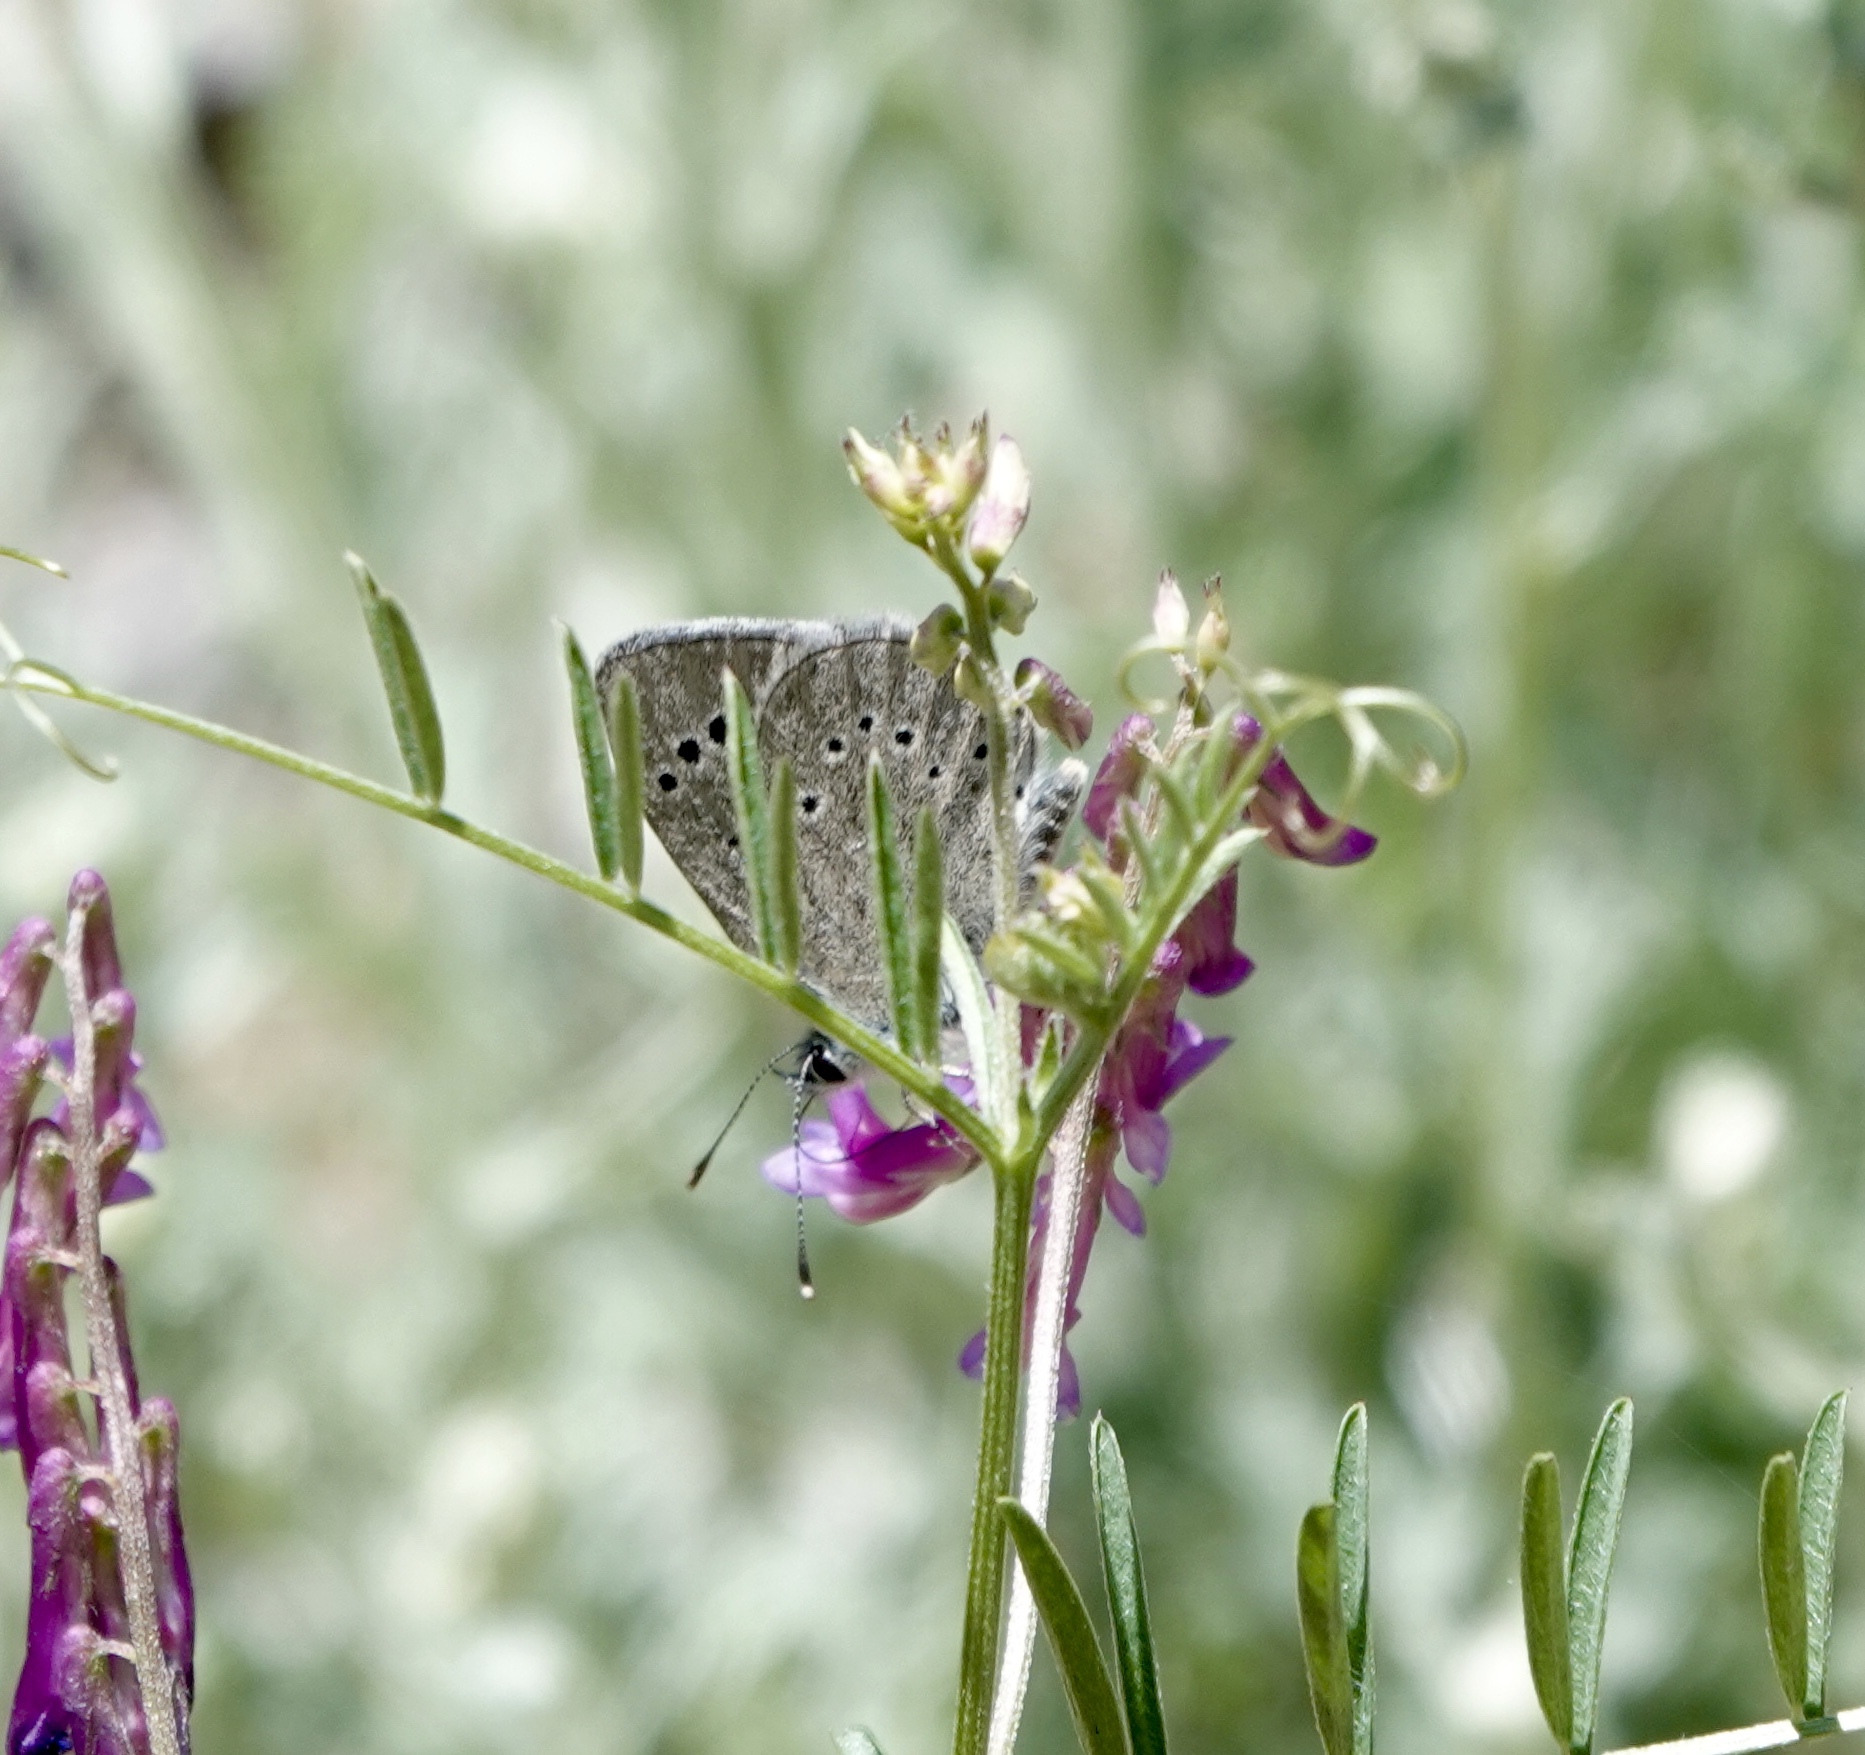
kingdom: Animalia
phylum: Arthropoda
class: Insecta
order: Lepidoptera
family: Lycaenidae
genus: Glaucopsyche
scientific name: Glaucopsyche lygdamus
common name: Silvery blue
